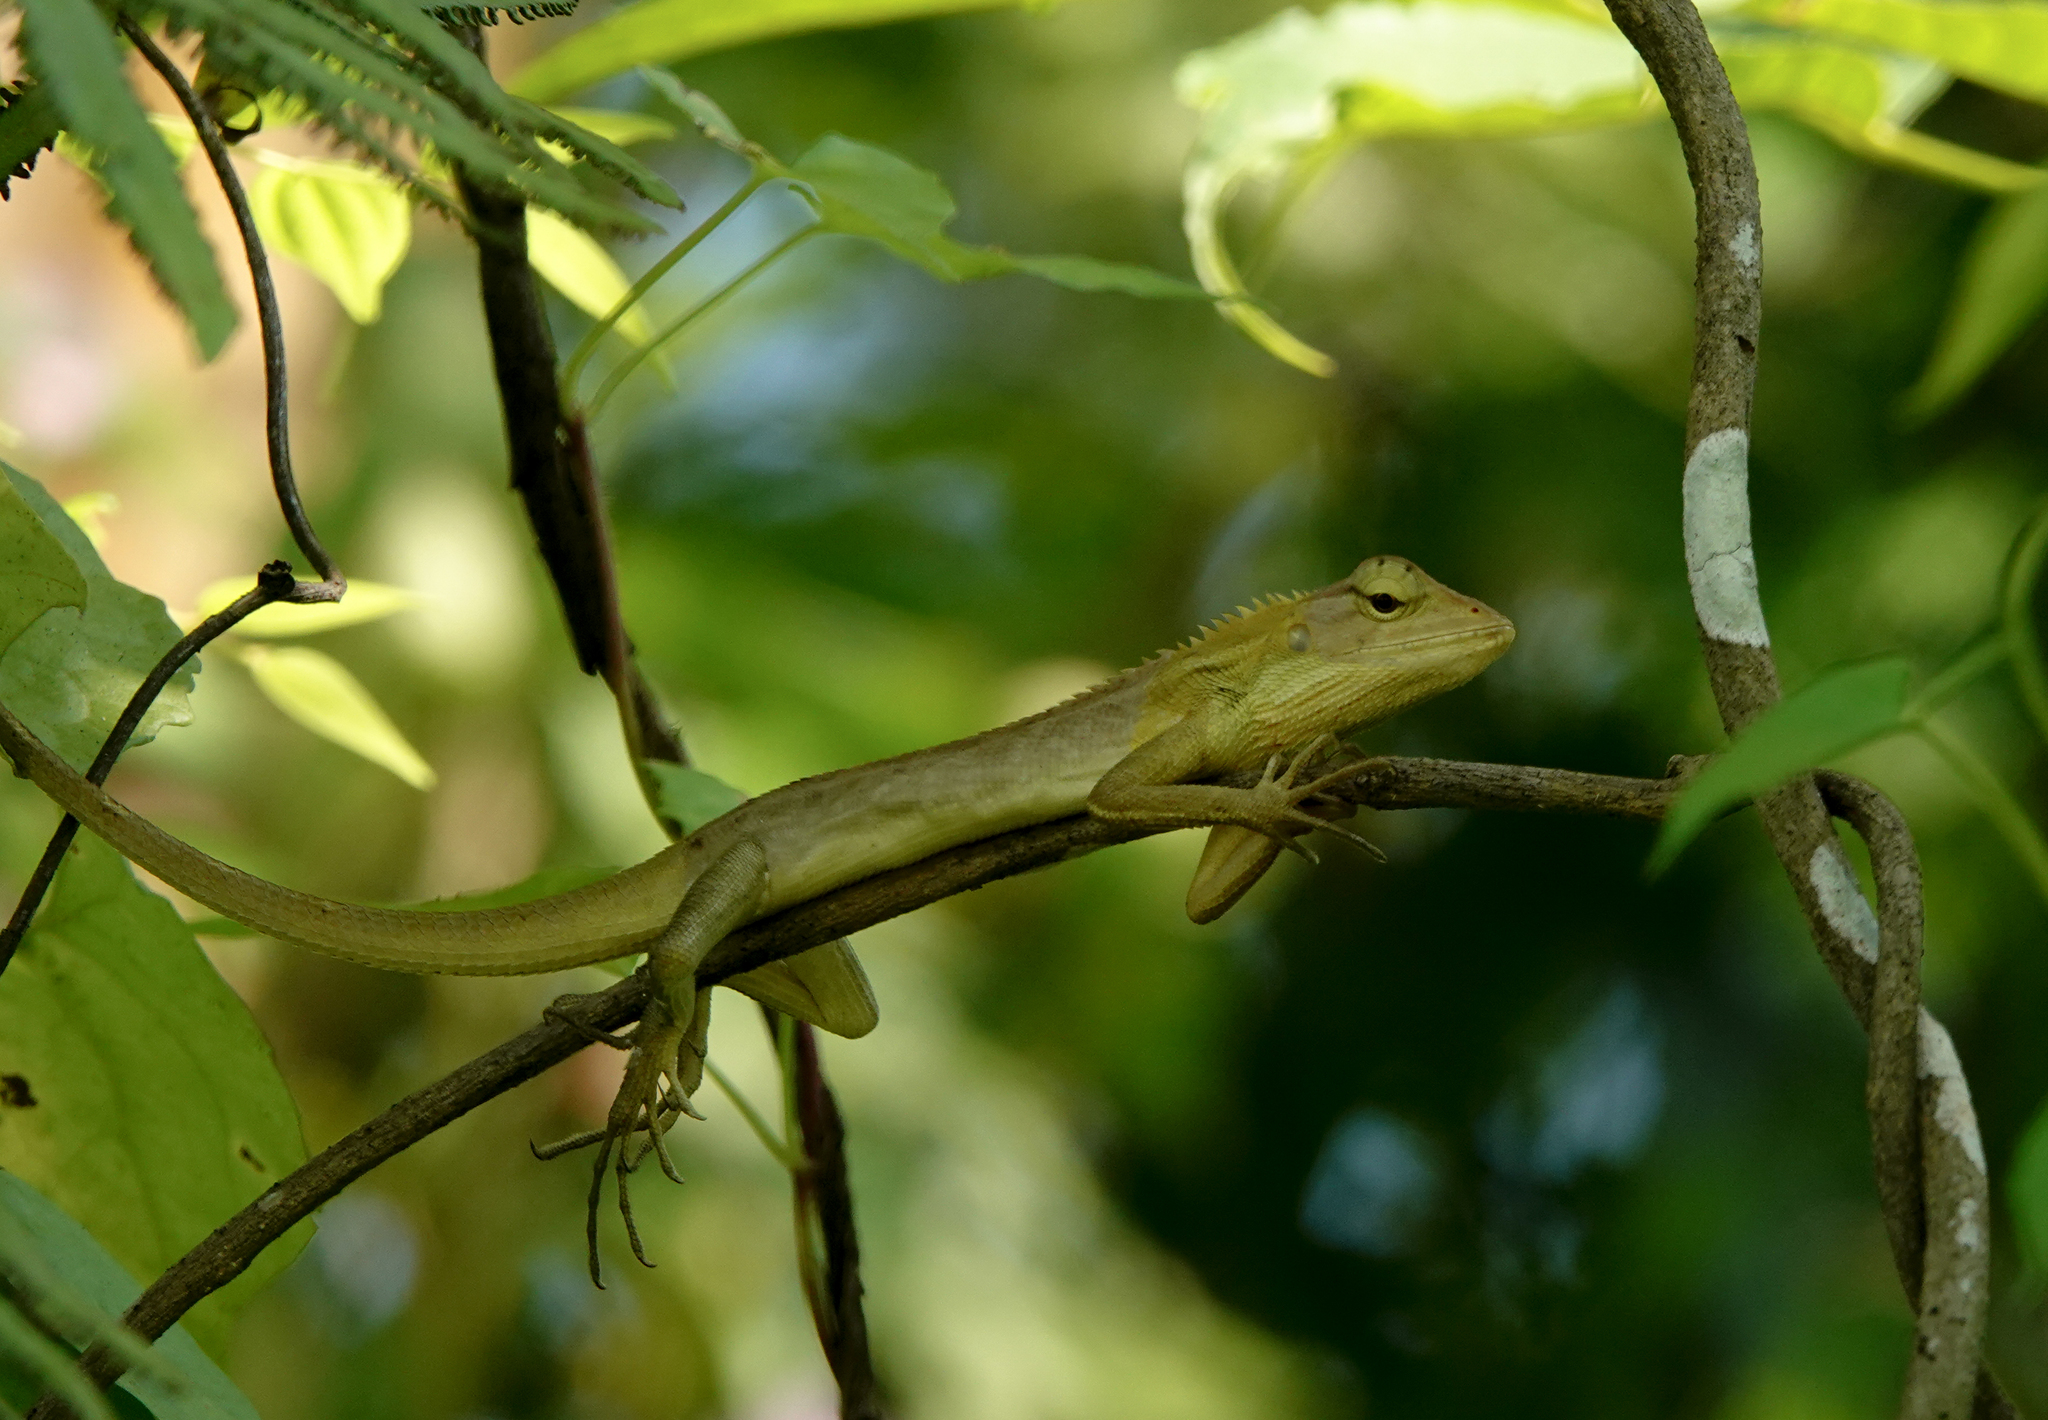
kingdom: Animalia
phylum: Chordata
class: Squamata
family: Agamidae
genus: Calotes
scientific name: Calotes versicolor
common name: Oriental garden lizard
